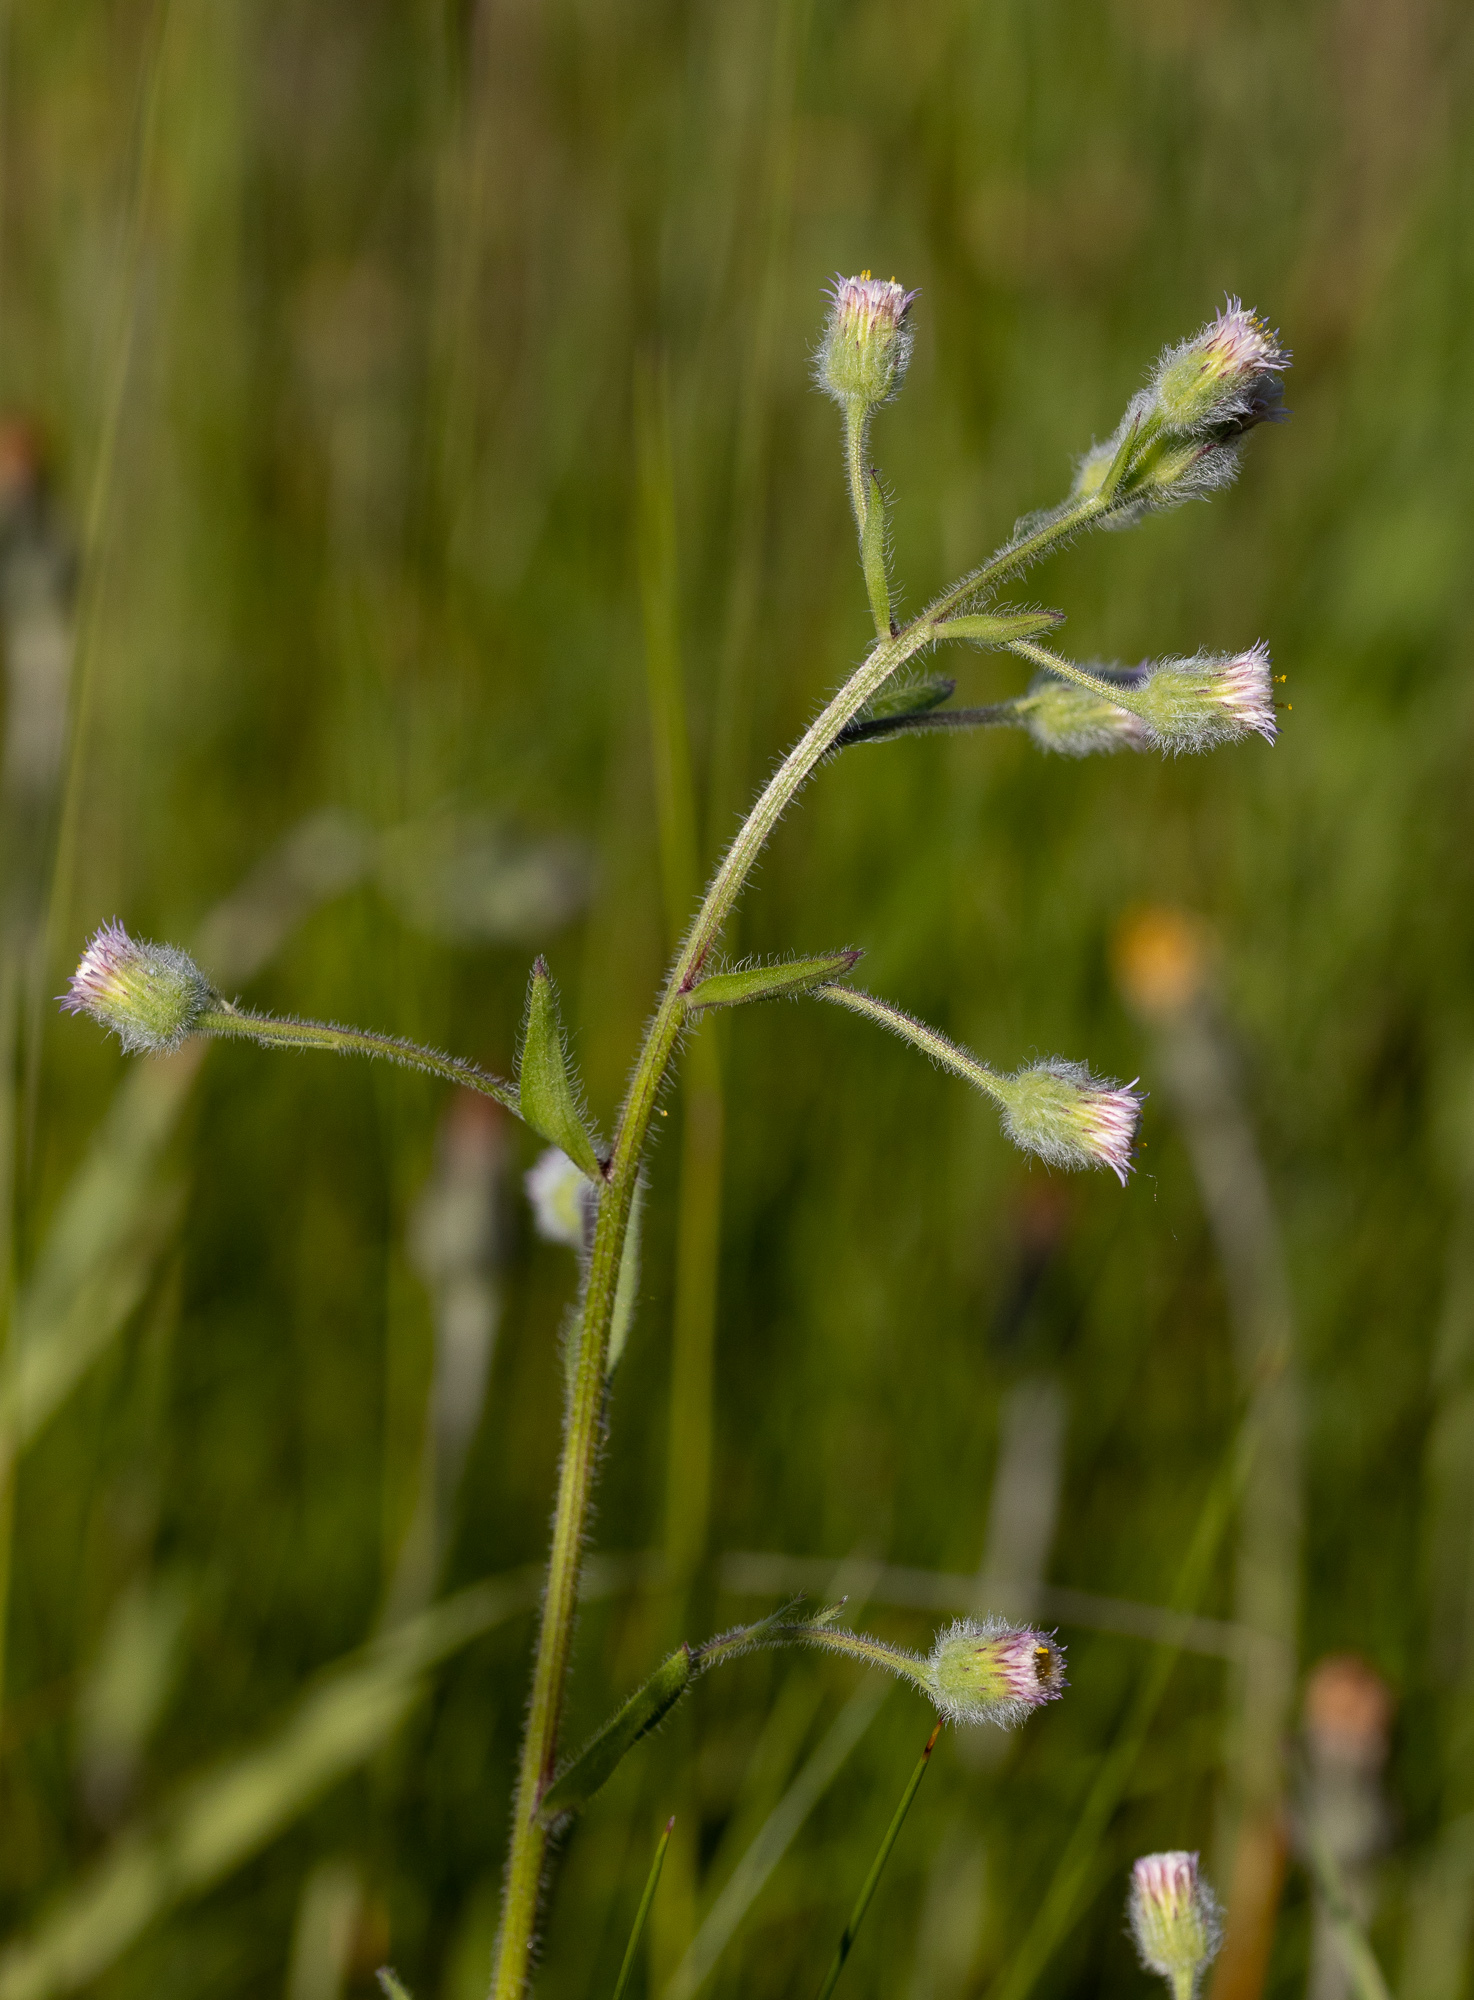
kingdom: Plantae
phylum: Tracheophyta
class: Magnoliopsida
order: Asterales
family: Asteraceae
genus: Erigeron
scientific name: Erigeron acris
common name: Blue fleabane
